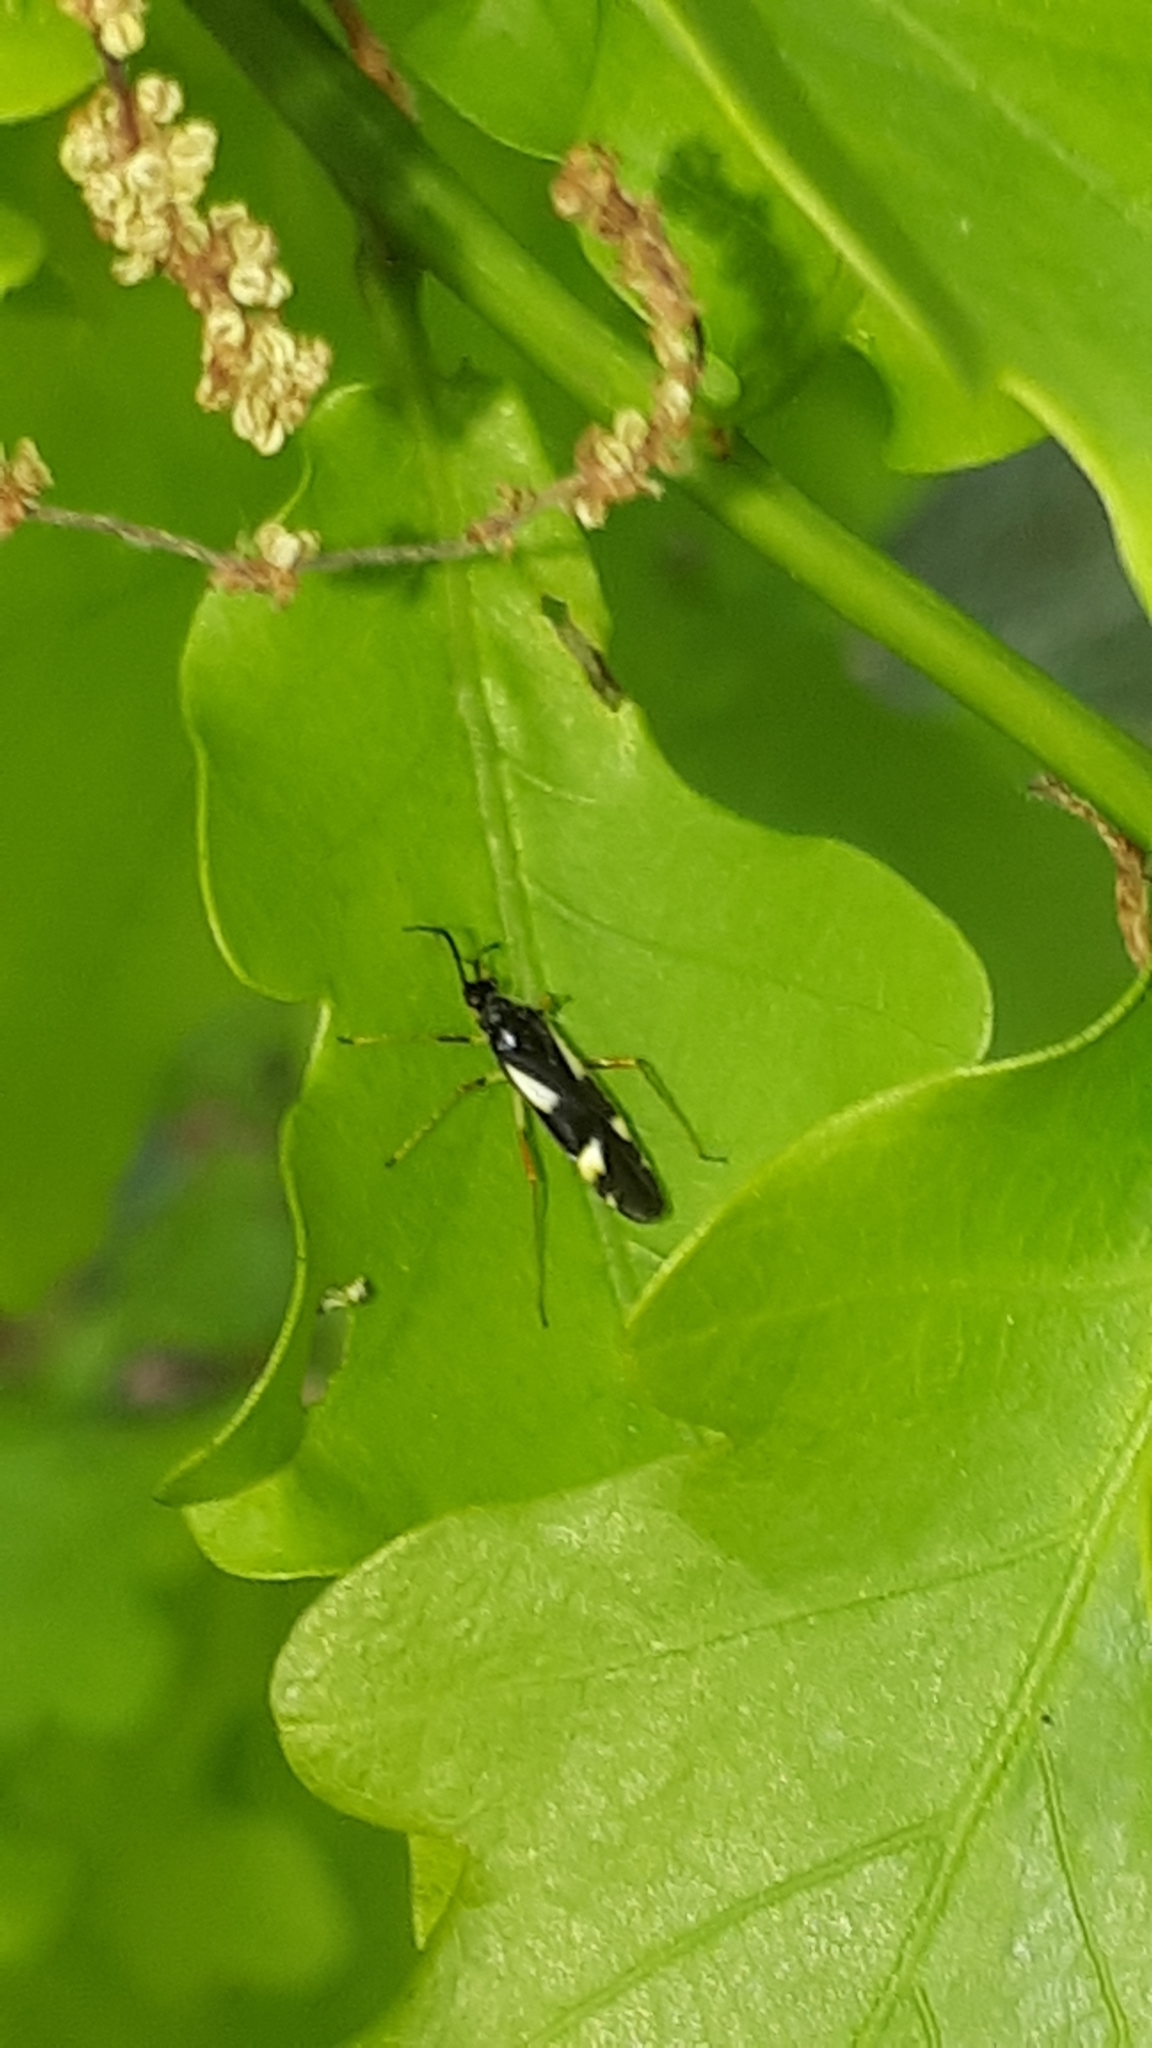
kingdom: Animalia
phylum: Arthropoda
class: Insecta
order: Hemiptera
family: Miridae
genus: Dryophilocoris
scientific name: Dryophilocoris flavoquadrimaculatus
